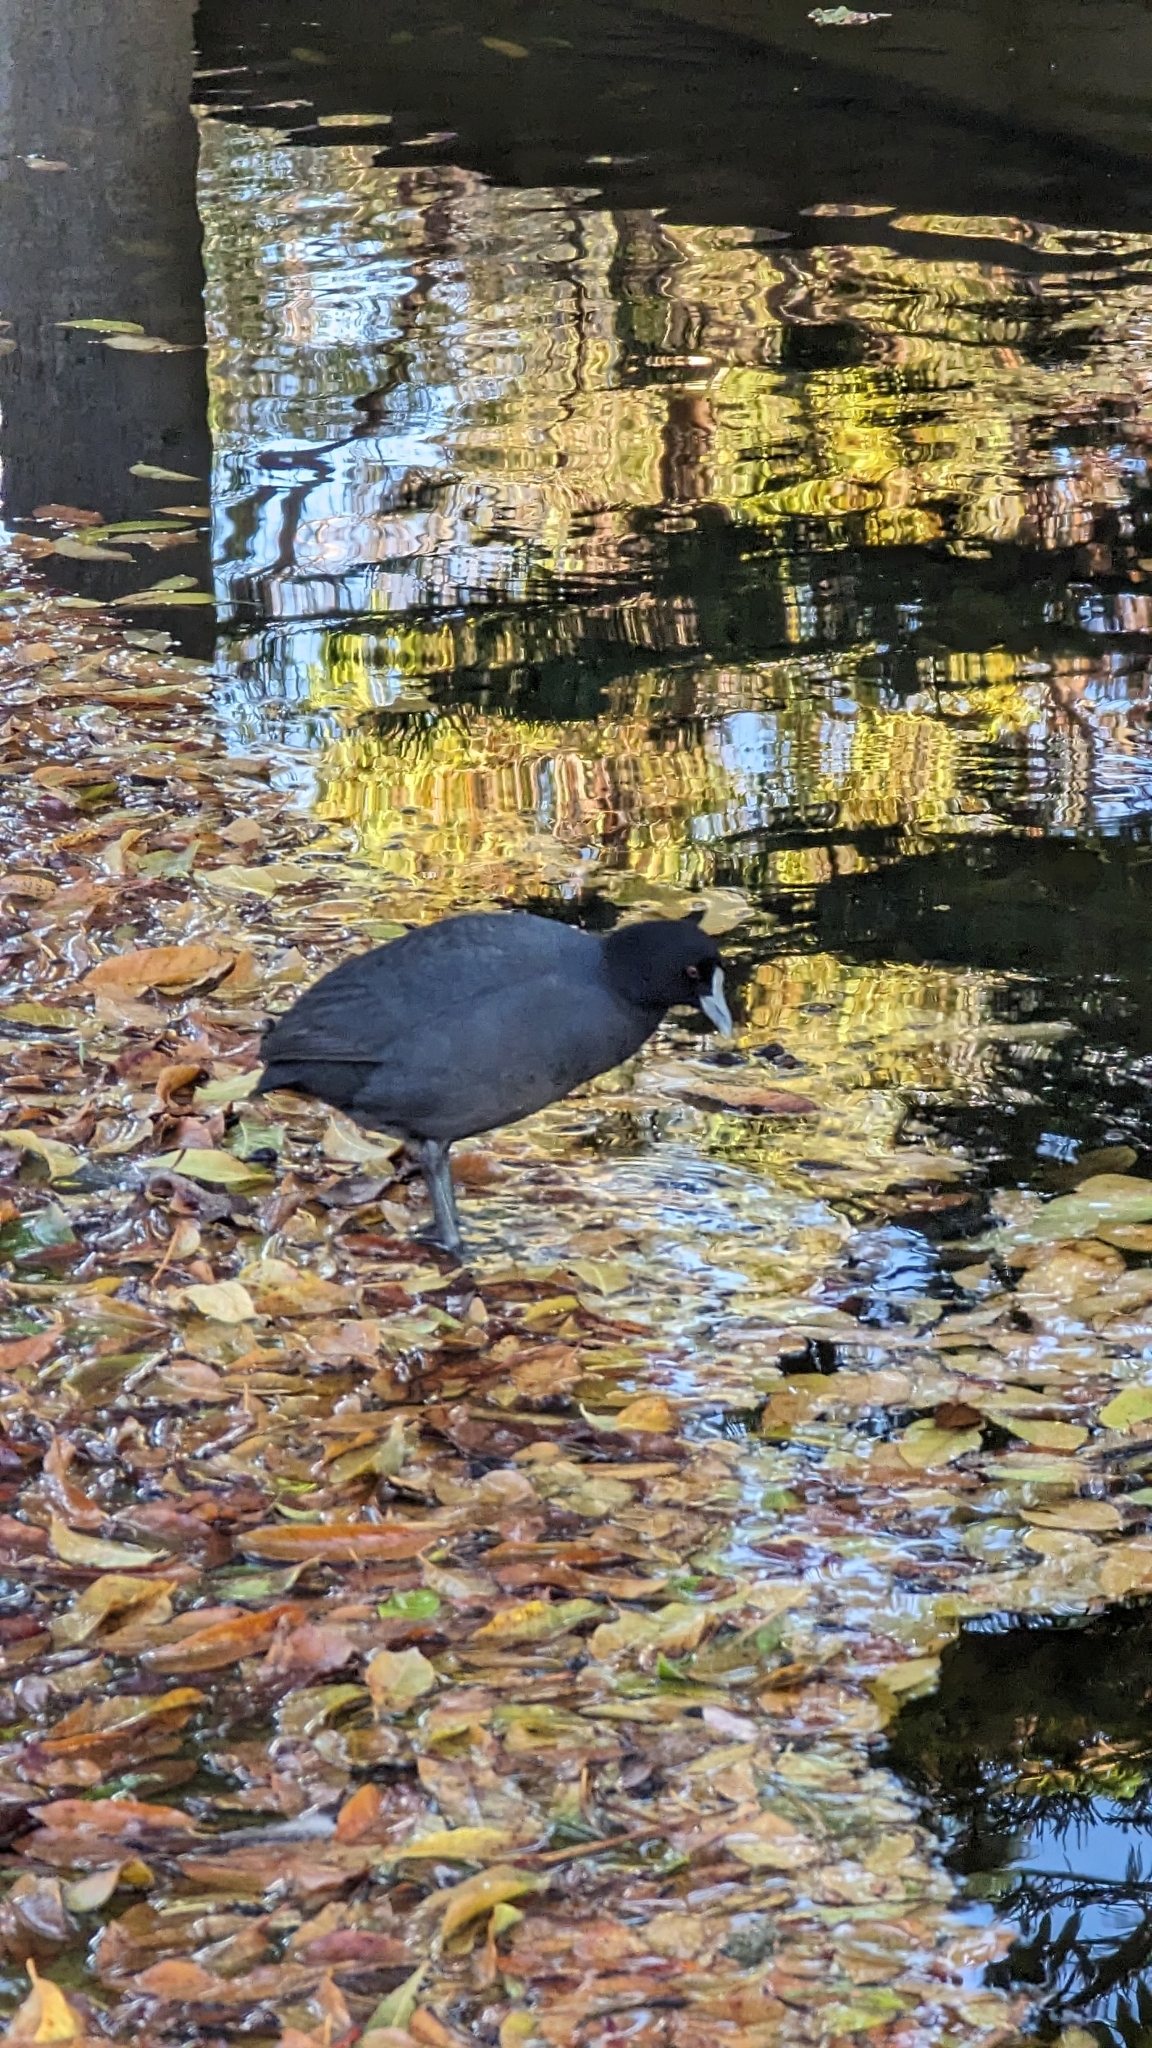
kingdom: Animalia
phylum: Chordata
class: Aves
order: Gruiformes
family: Rallidae
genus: Fulica
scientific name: Fulica atra
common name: Eurasian coot
